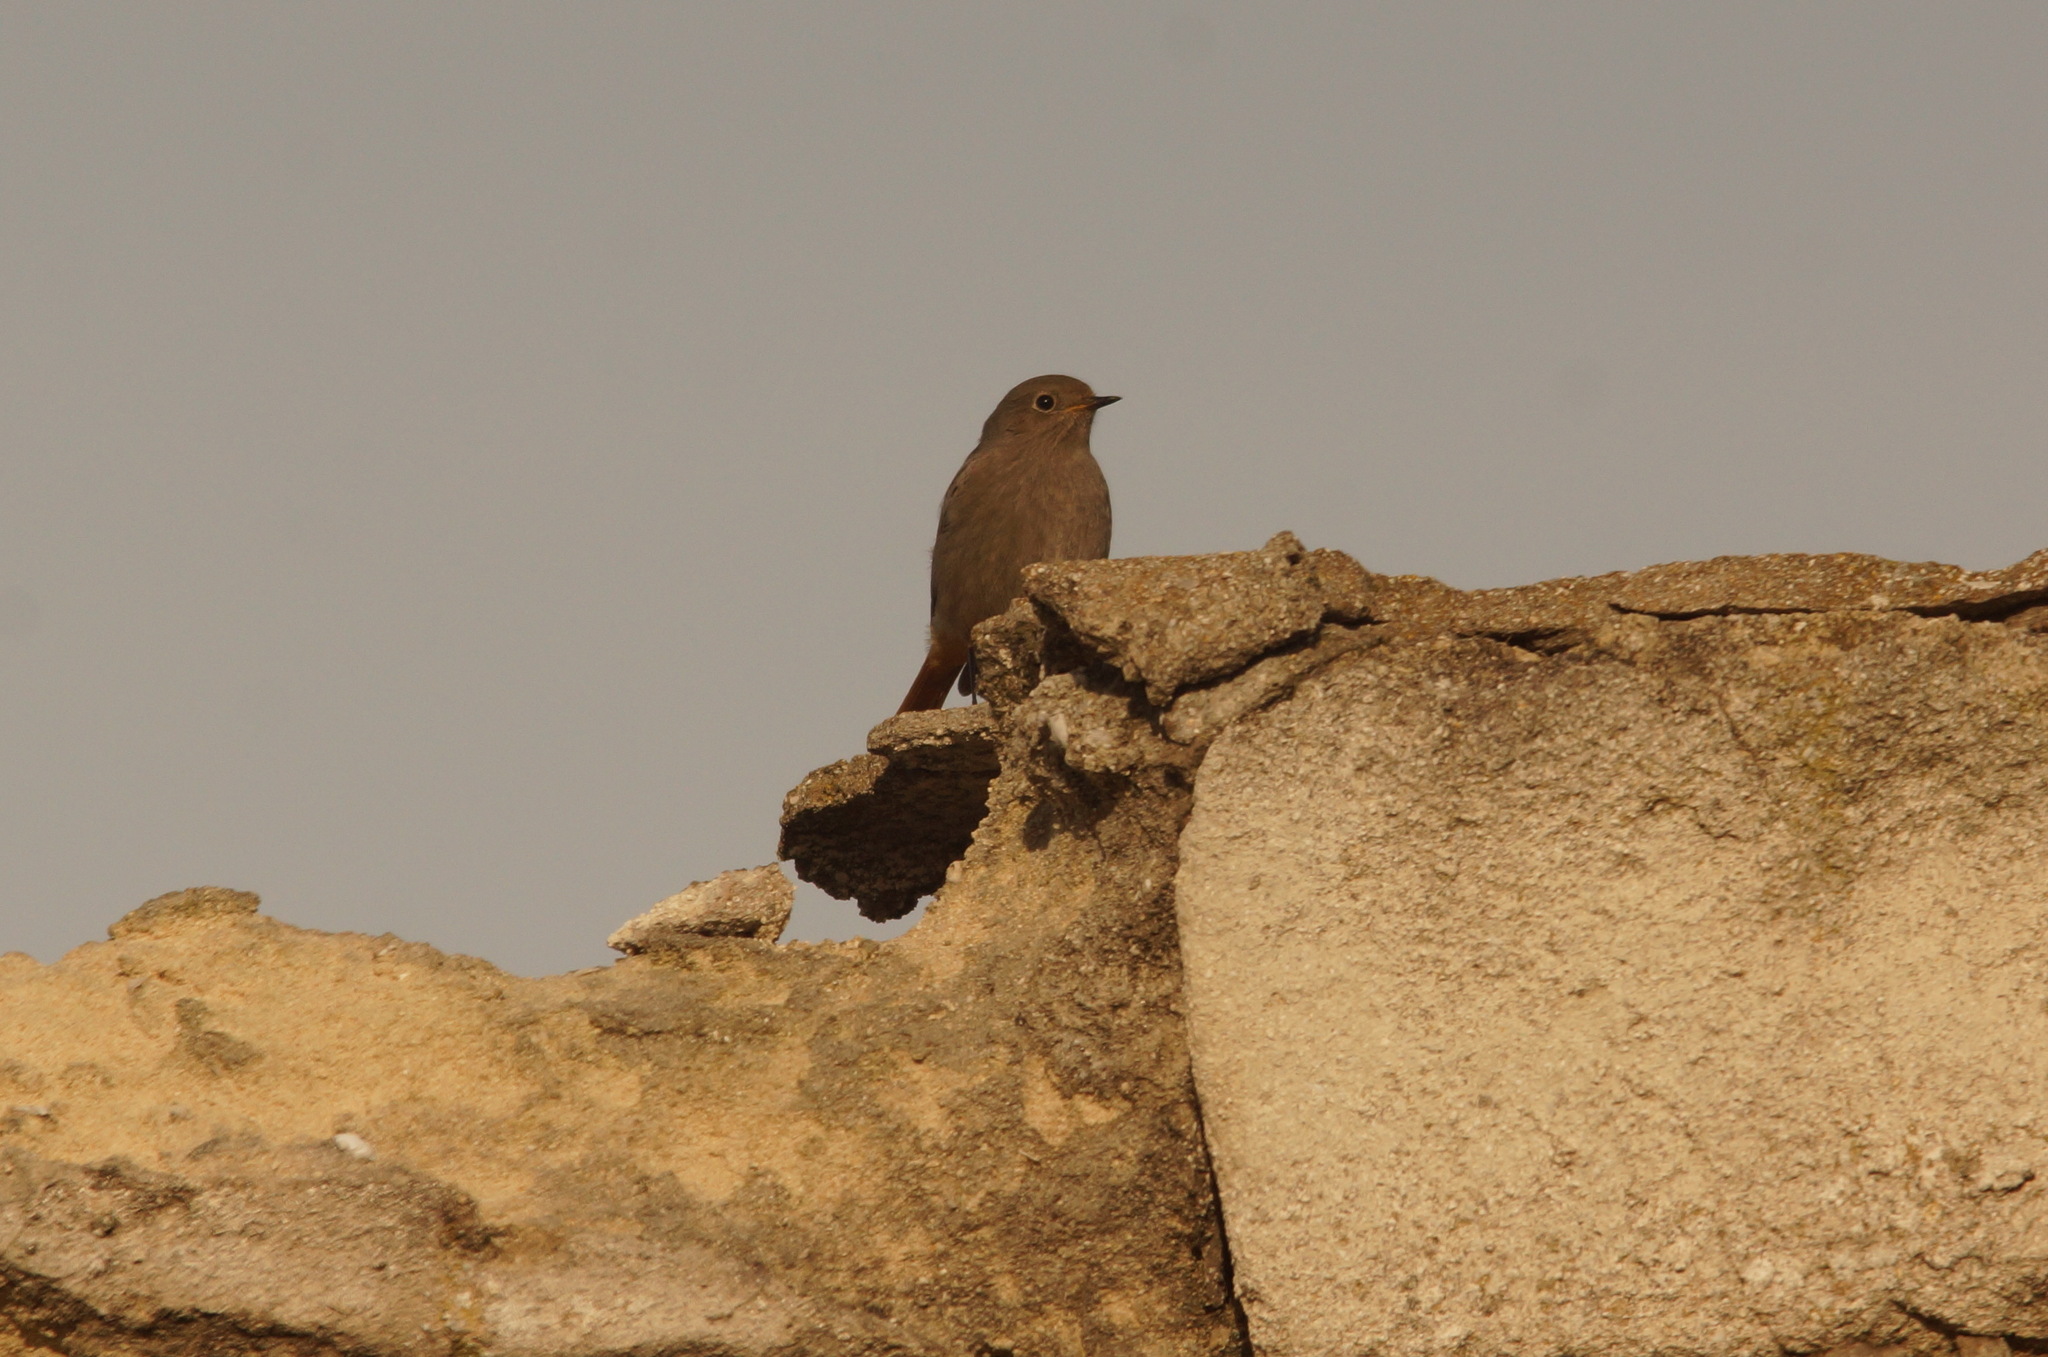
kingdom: Animalia
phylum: Chordata
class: Aves
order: Passeriformes
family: Muscicapidae
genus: Phoenicurus
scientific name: Phoenicurus ochruros
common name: Black redstart
